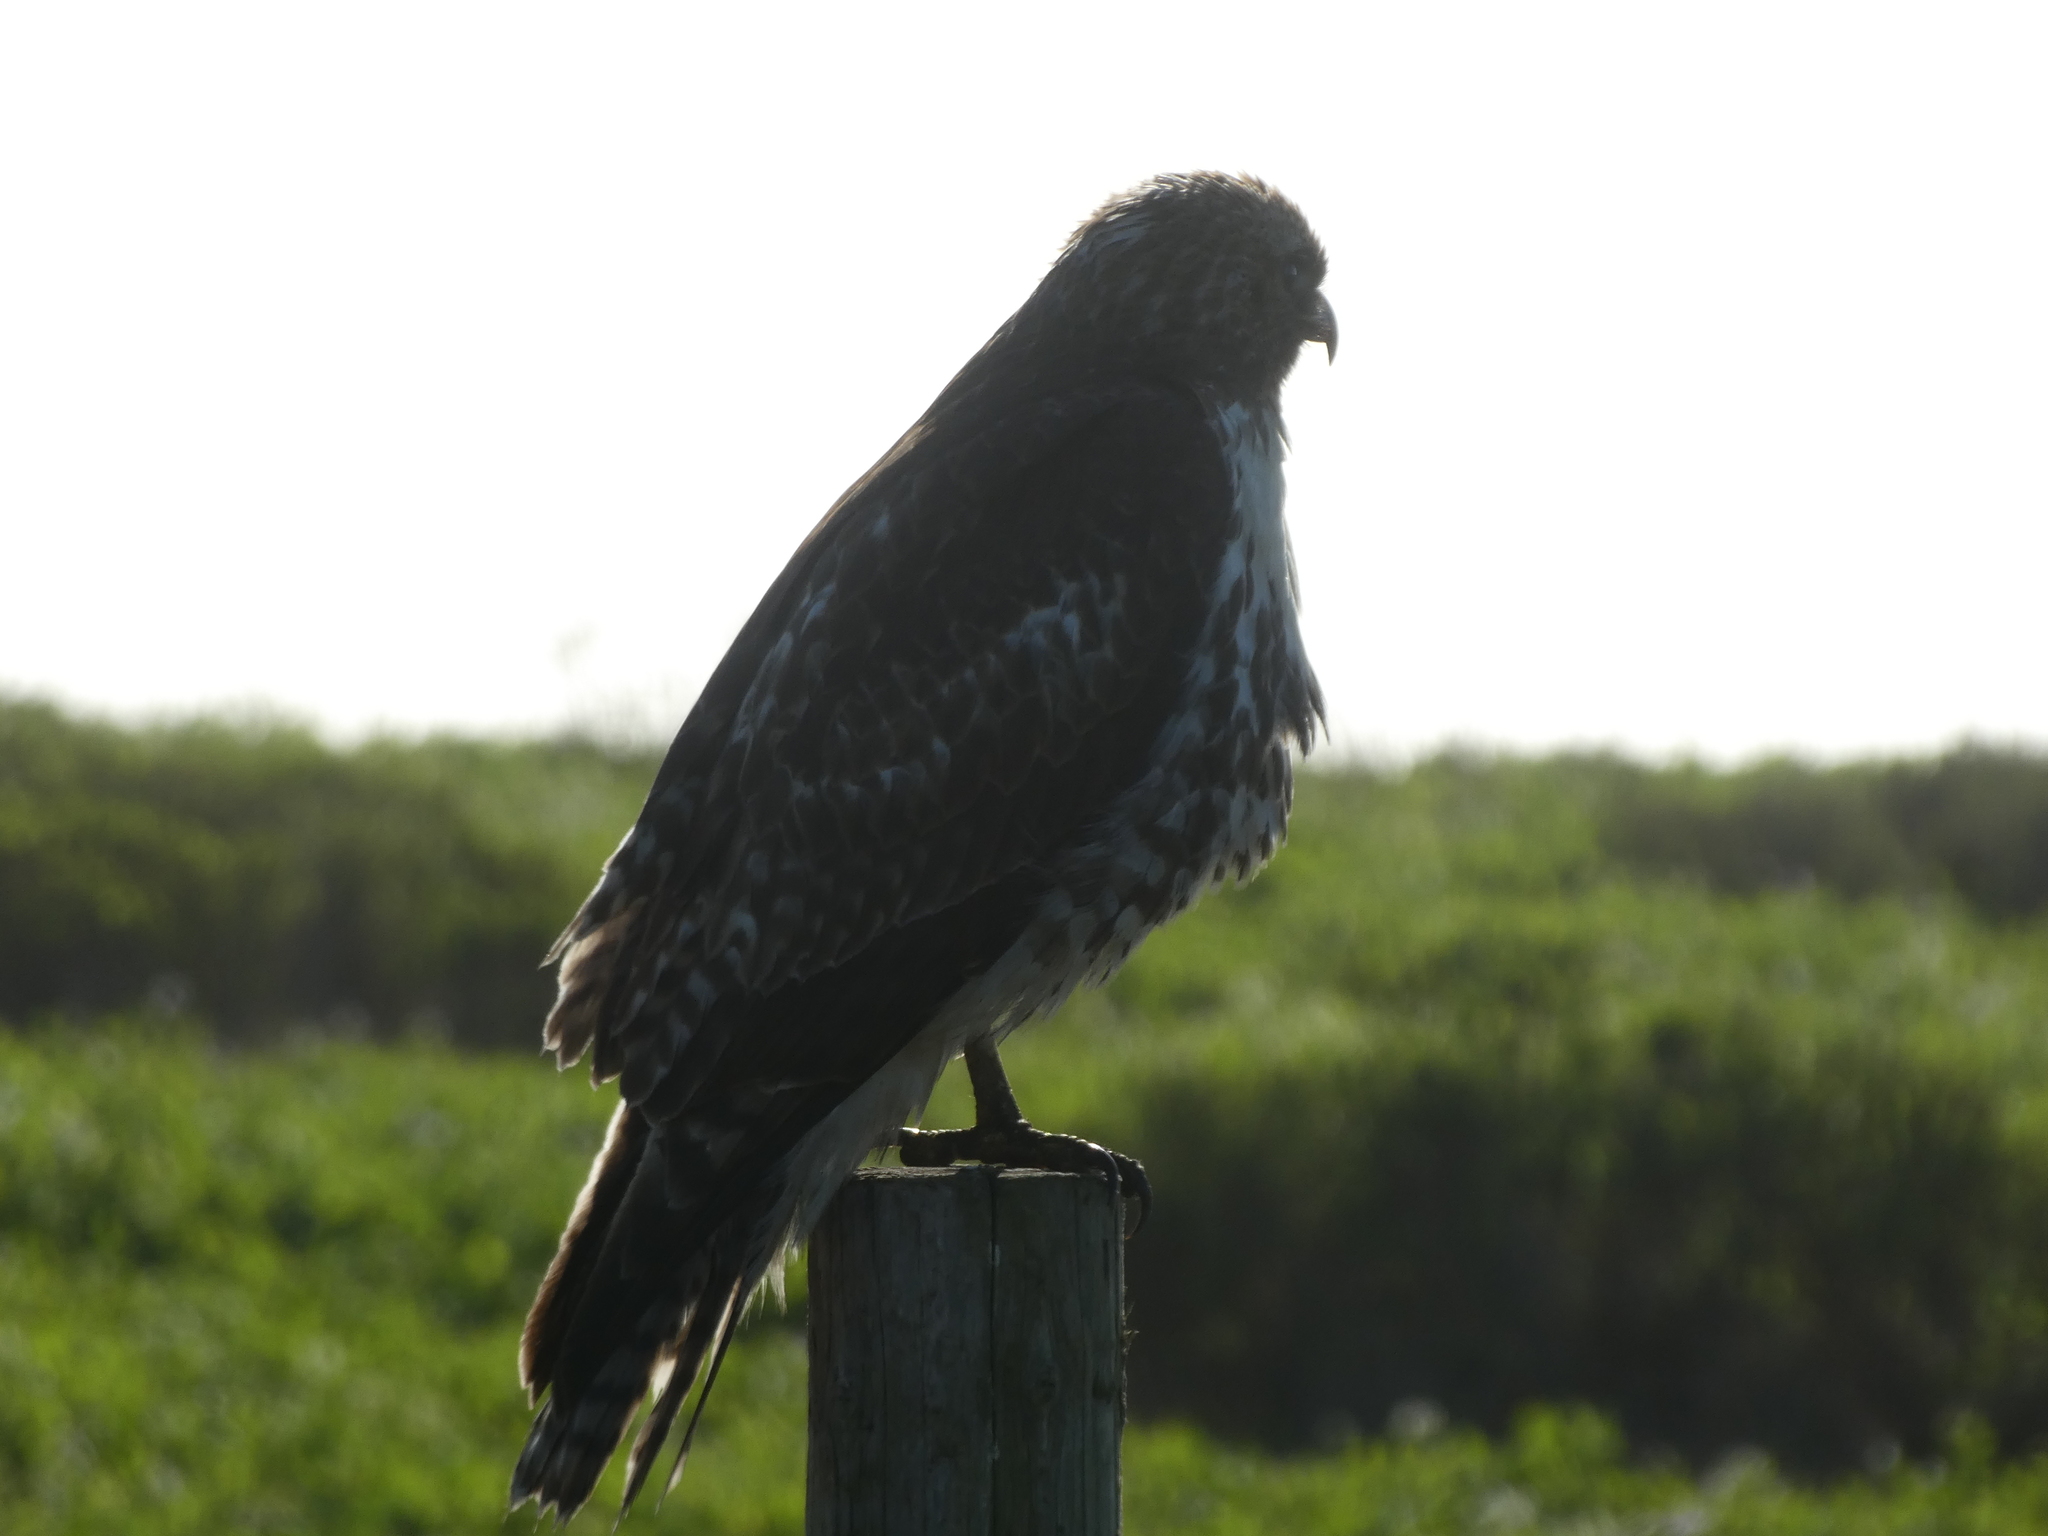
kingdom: Animalia
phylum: Chordata
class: Aves
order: Accipitriformes
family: Accipitridae
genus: Buteo
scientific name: Buteo jamaicensis
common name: Red-tailed hawk
